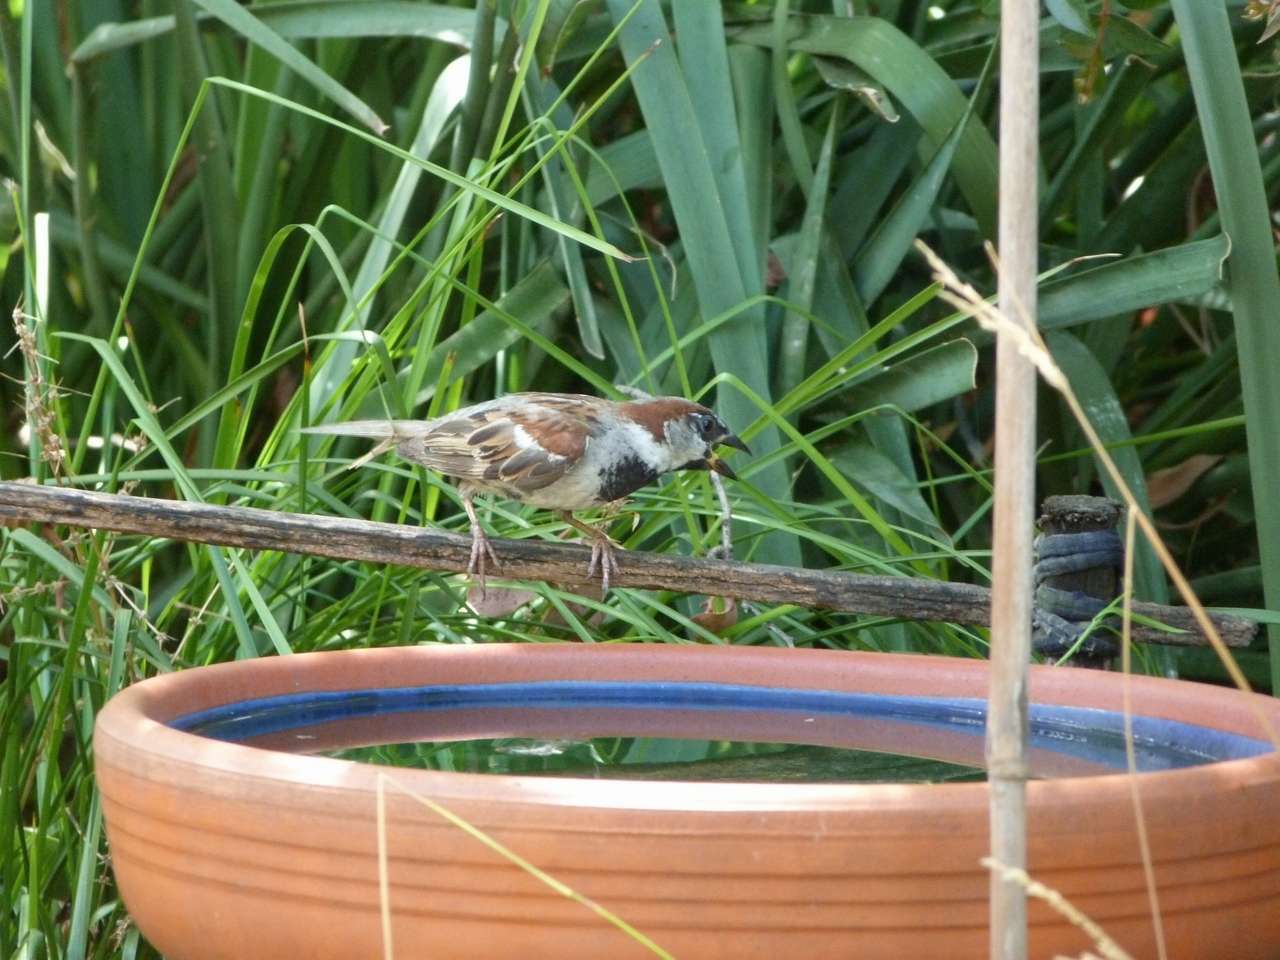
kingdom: Animalia
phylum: Chordata
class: Aves
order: Passeriformes
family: Passeridae
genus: Passer
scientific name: Passer domesticus
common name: House sparrow
